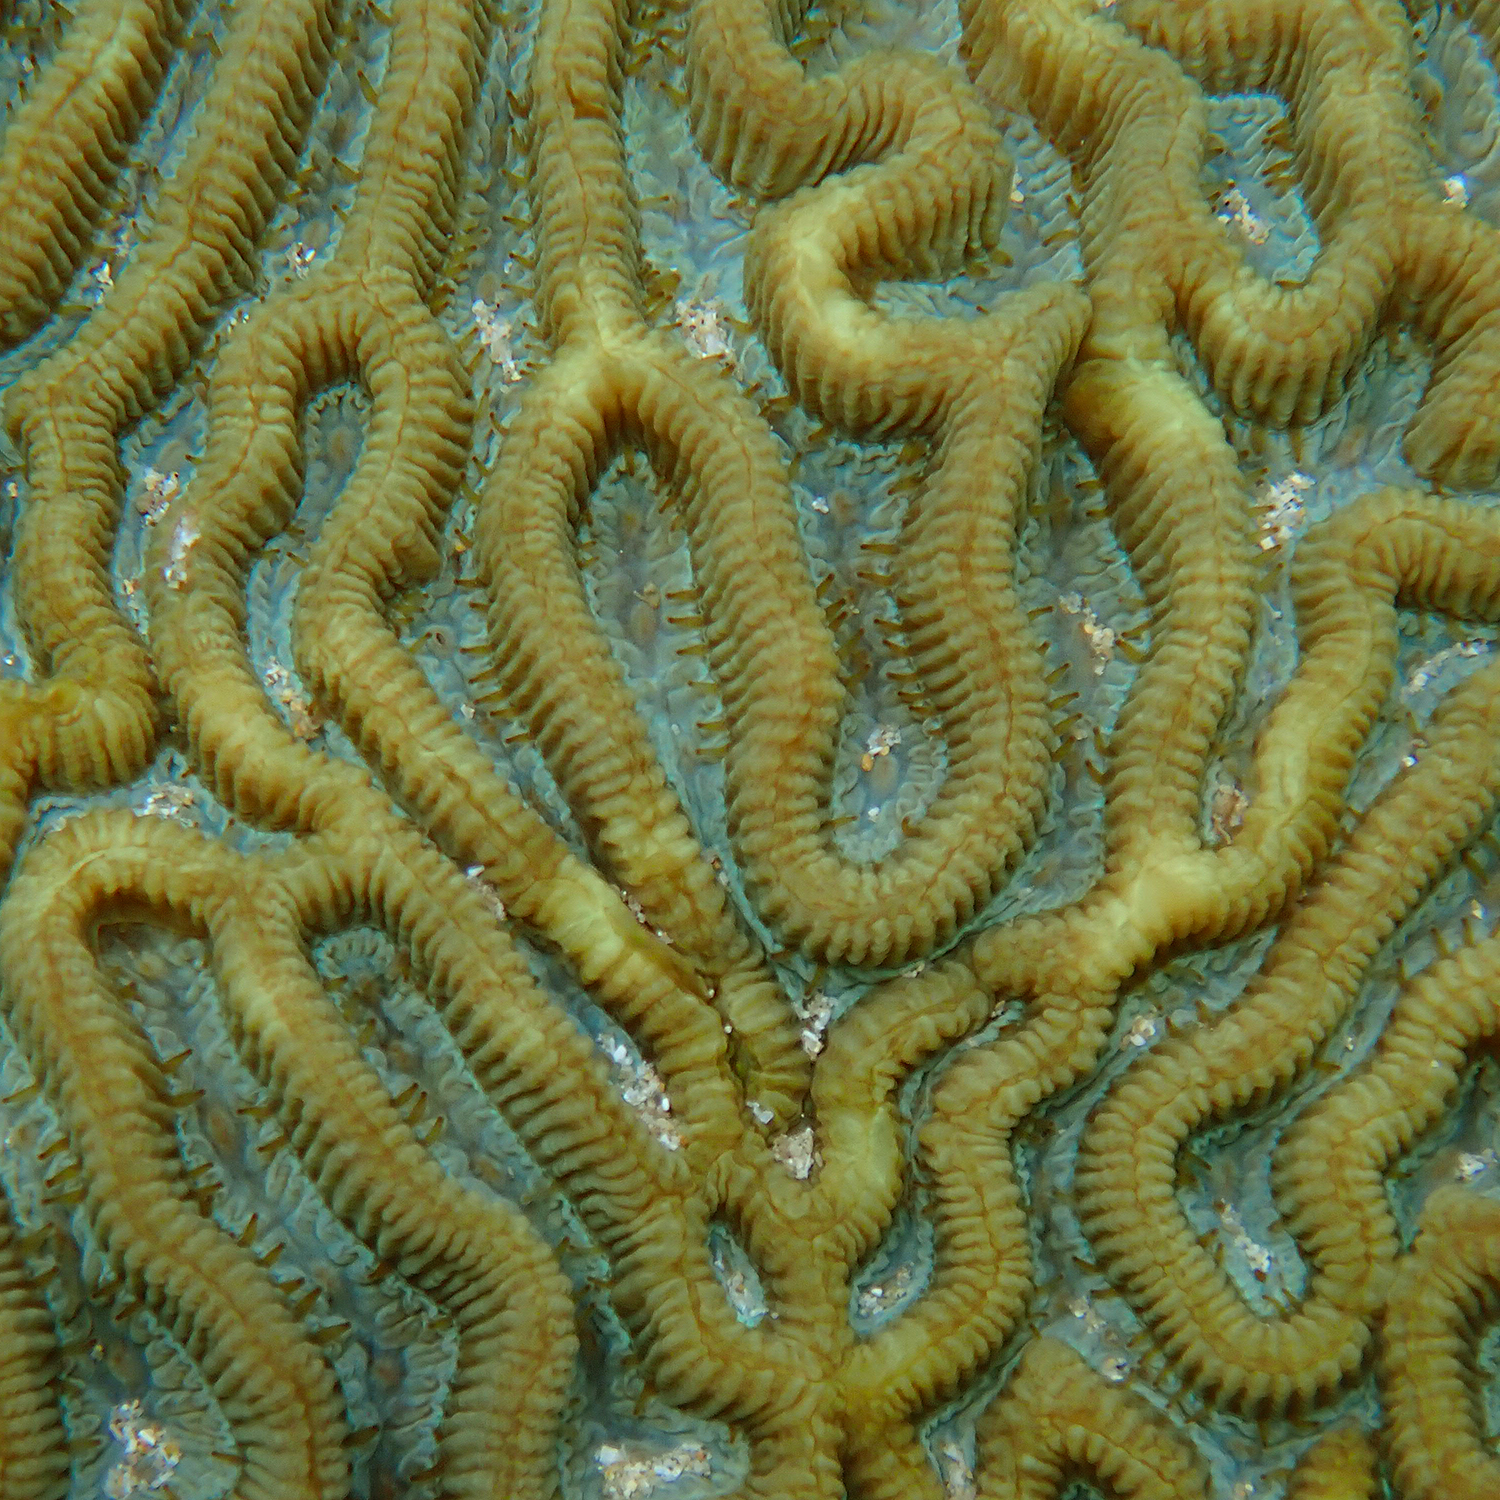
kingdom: Animalia
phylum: Cnidaria
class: Anthozoa
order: Scleractinia
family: Merulinidae
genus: Paragoniastrea
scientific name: Paragoniastrea australensis
